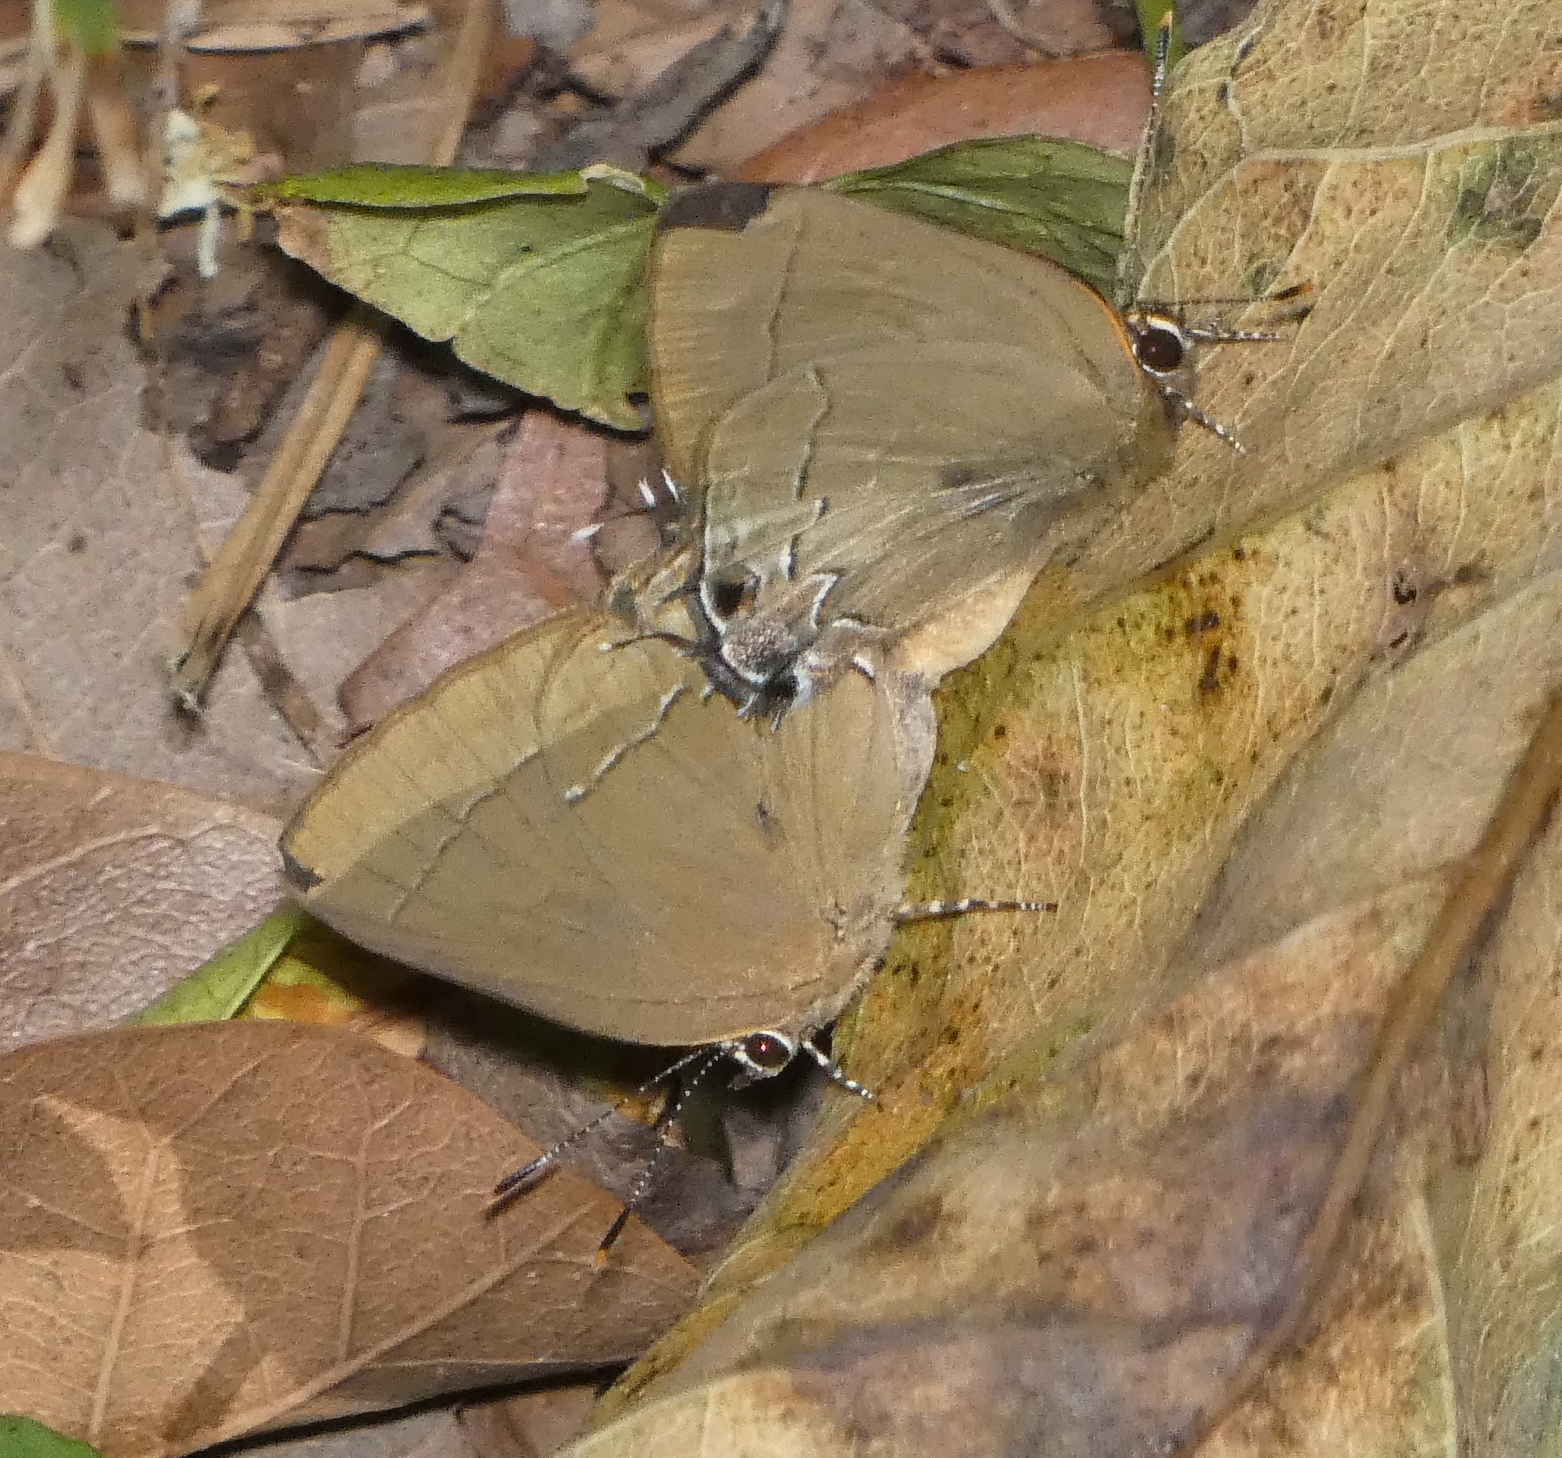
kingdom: Animalia
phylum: Arthropoda
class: Insecta
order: Lepidoptera
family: Lycaenidae
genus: Ziegleria
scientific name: Ziegleria hesperitis
